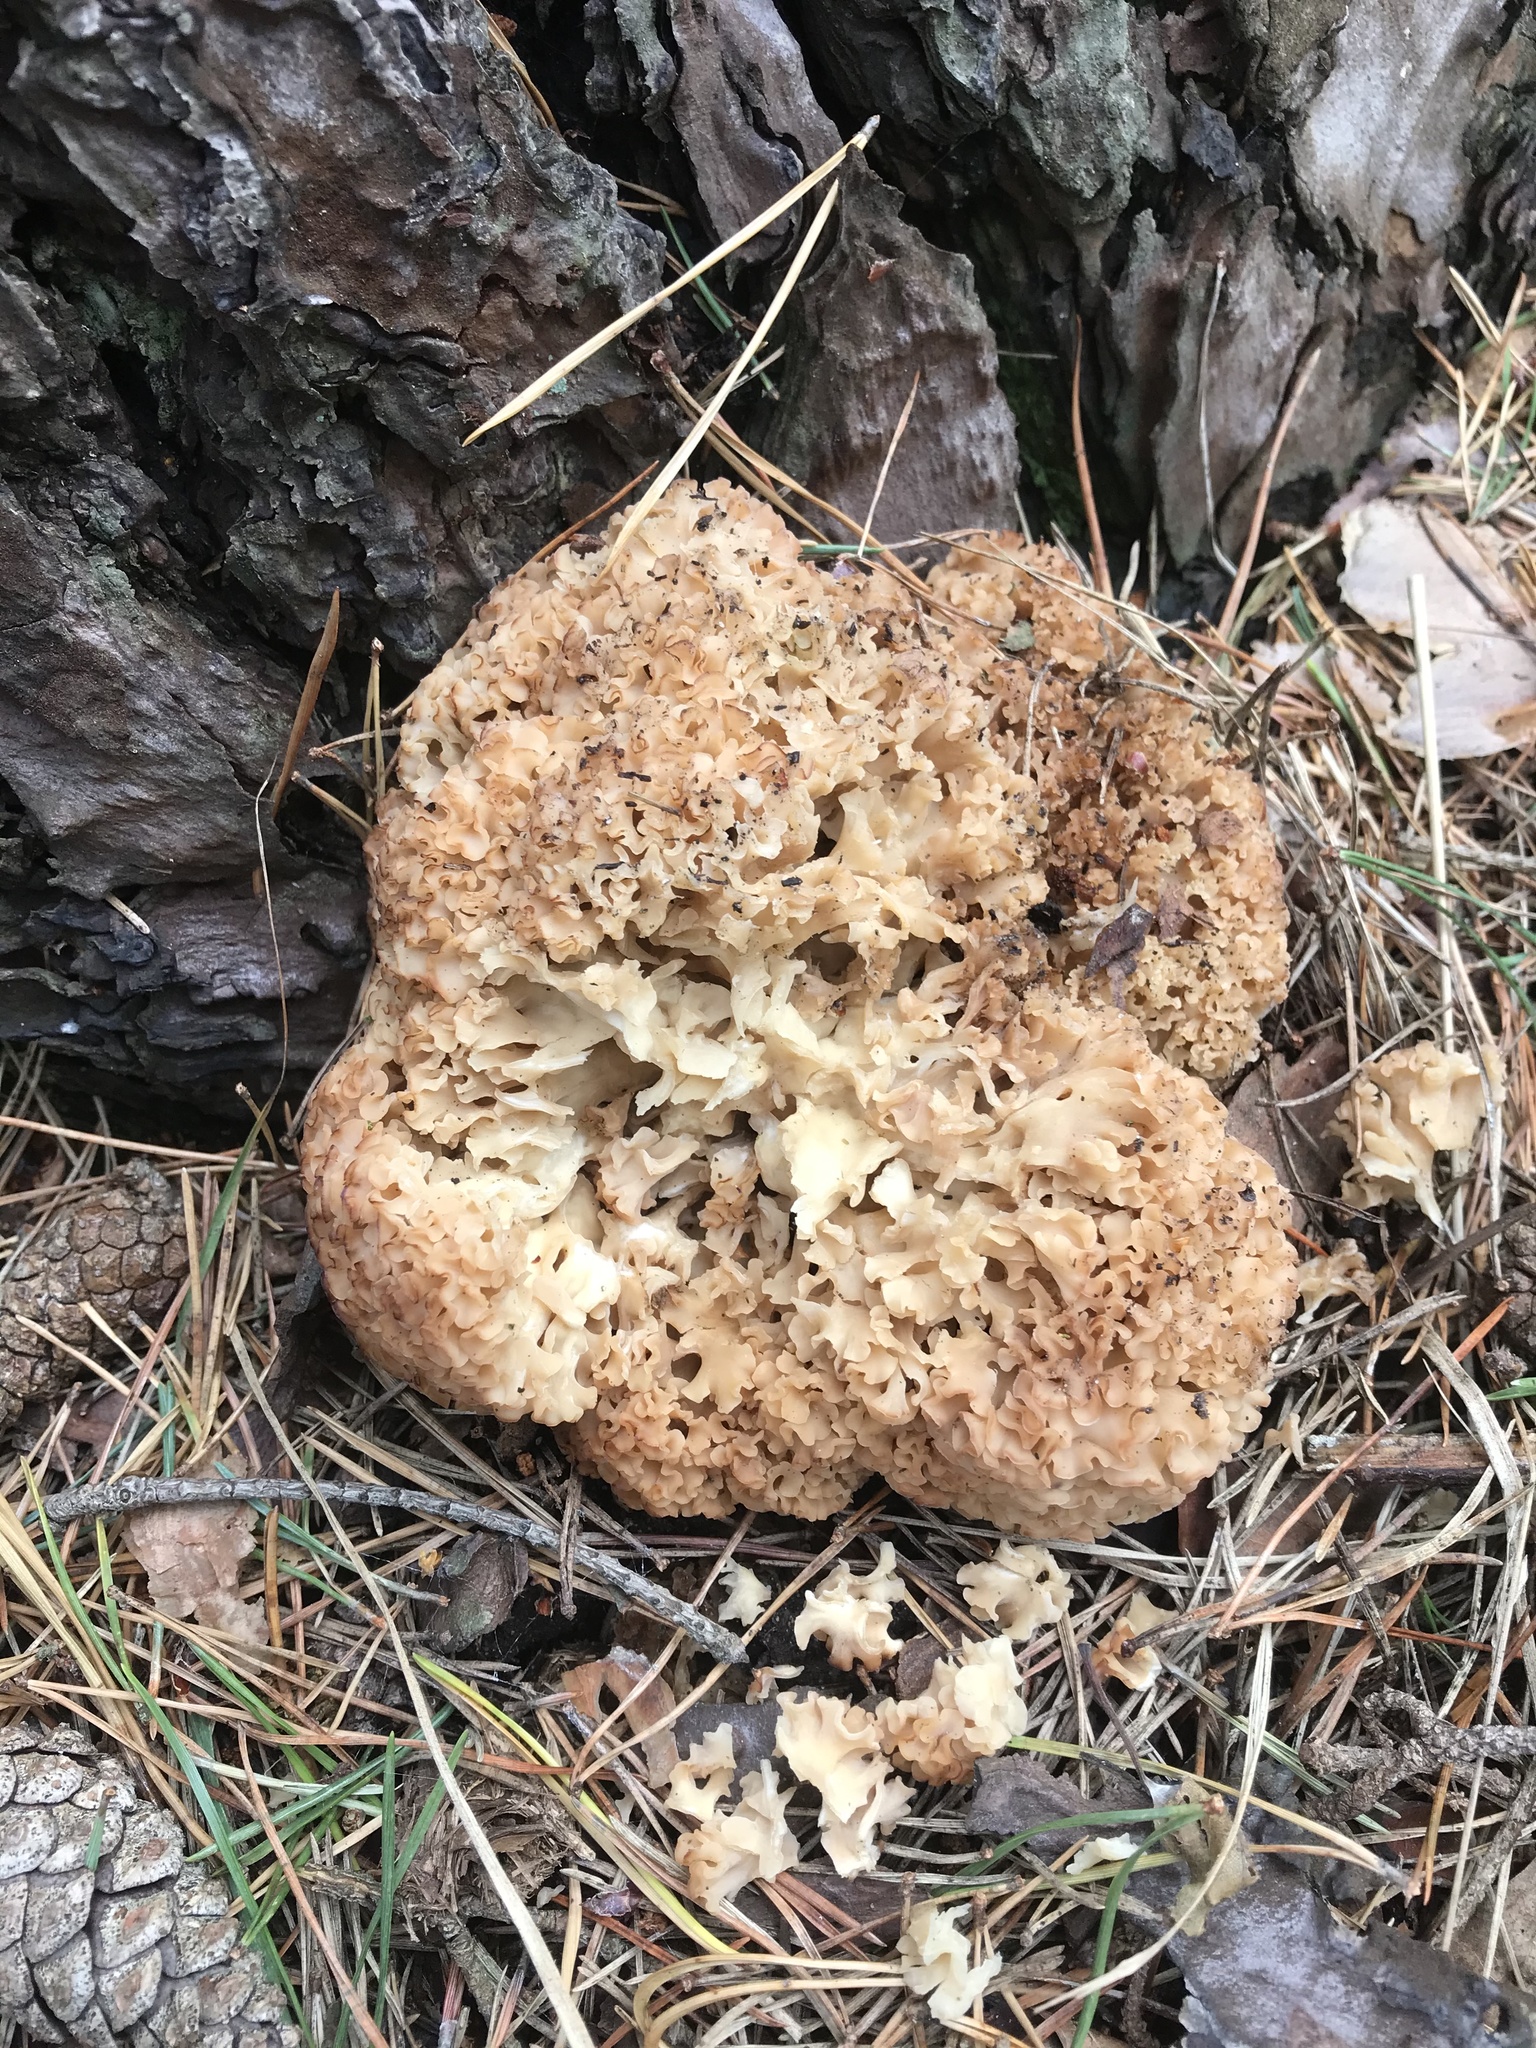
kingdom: Fungi
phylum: Basidiomycota
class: Agaricomycetes
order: Polyporales
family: Sparassidaceae
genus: Sparassis
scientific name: Sparassis crispa
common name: Brain fungus
